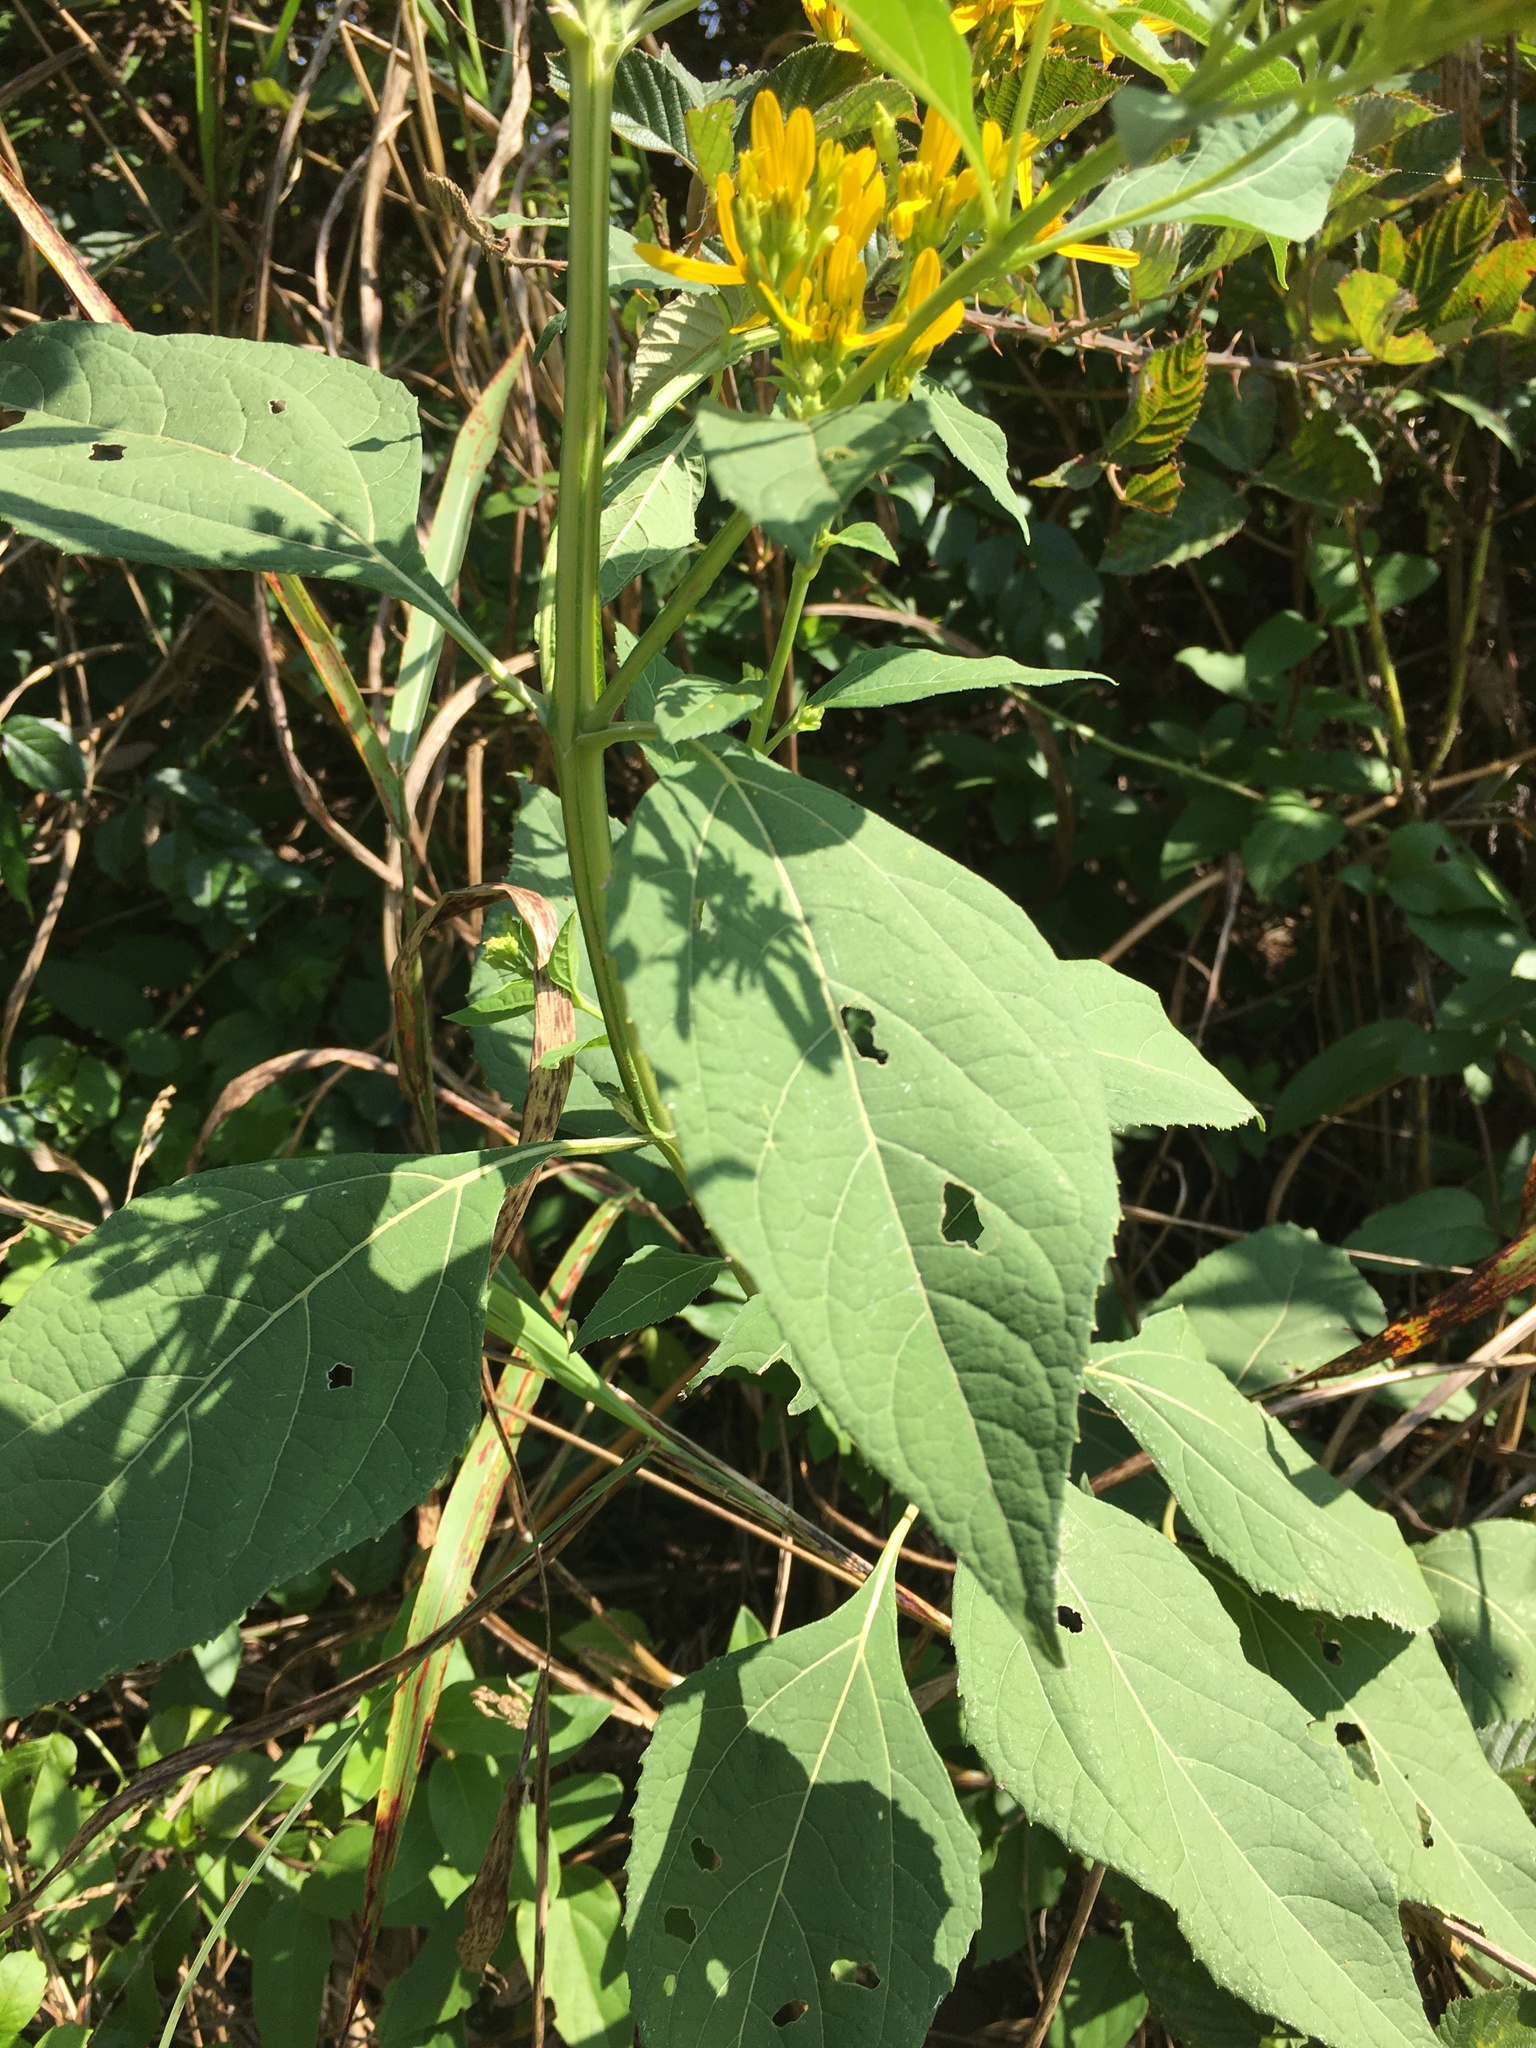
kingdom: Plantae
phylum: Tracheophyta
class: Magnoliopsida
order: Asterales
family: Asteraceae
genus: Verbesina
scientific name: Verbesina occidentalis
